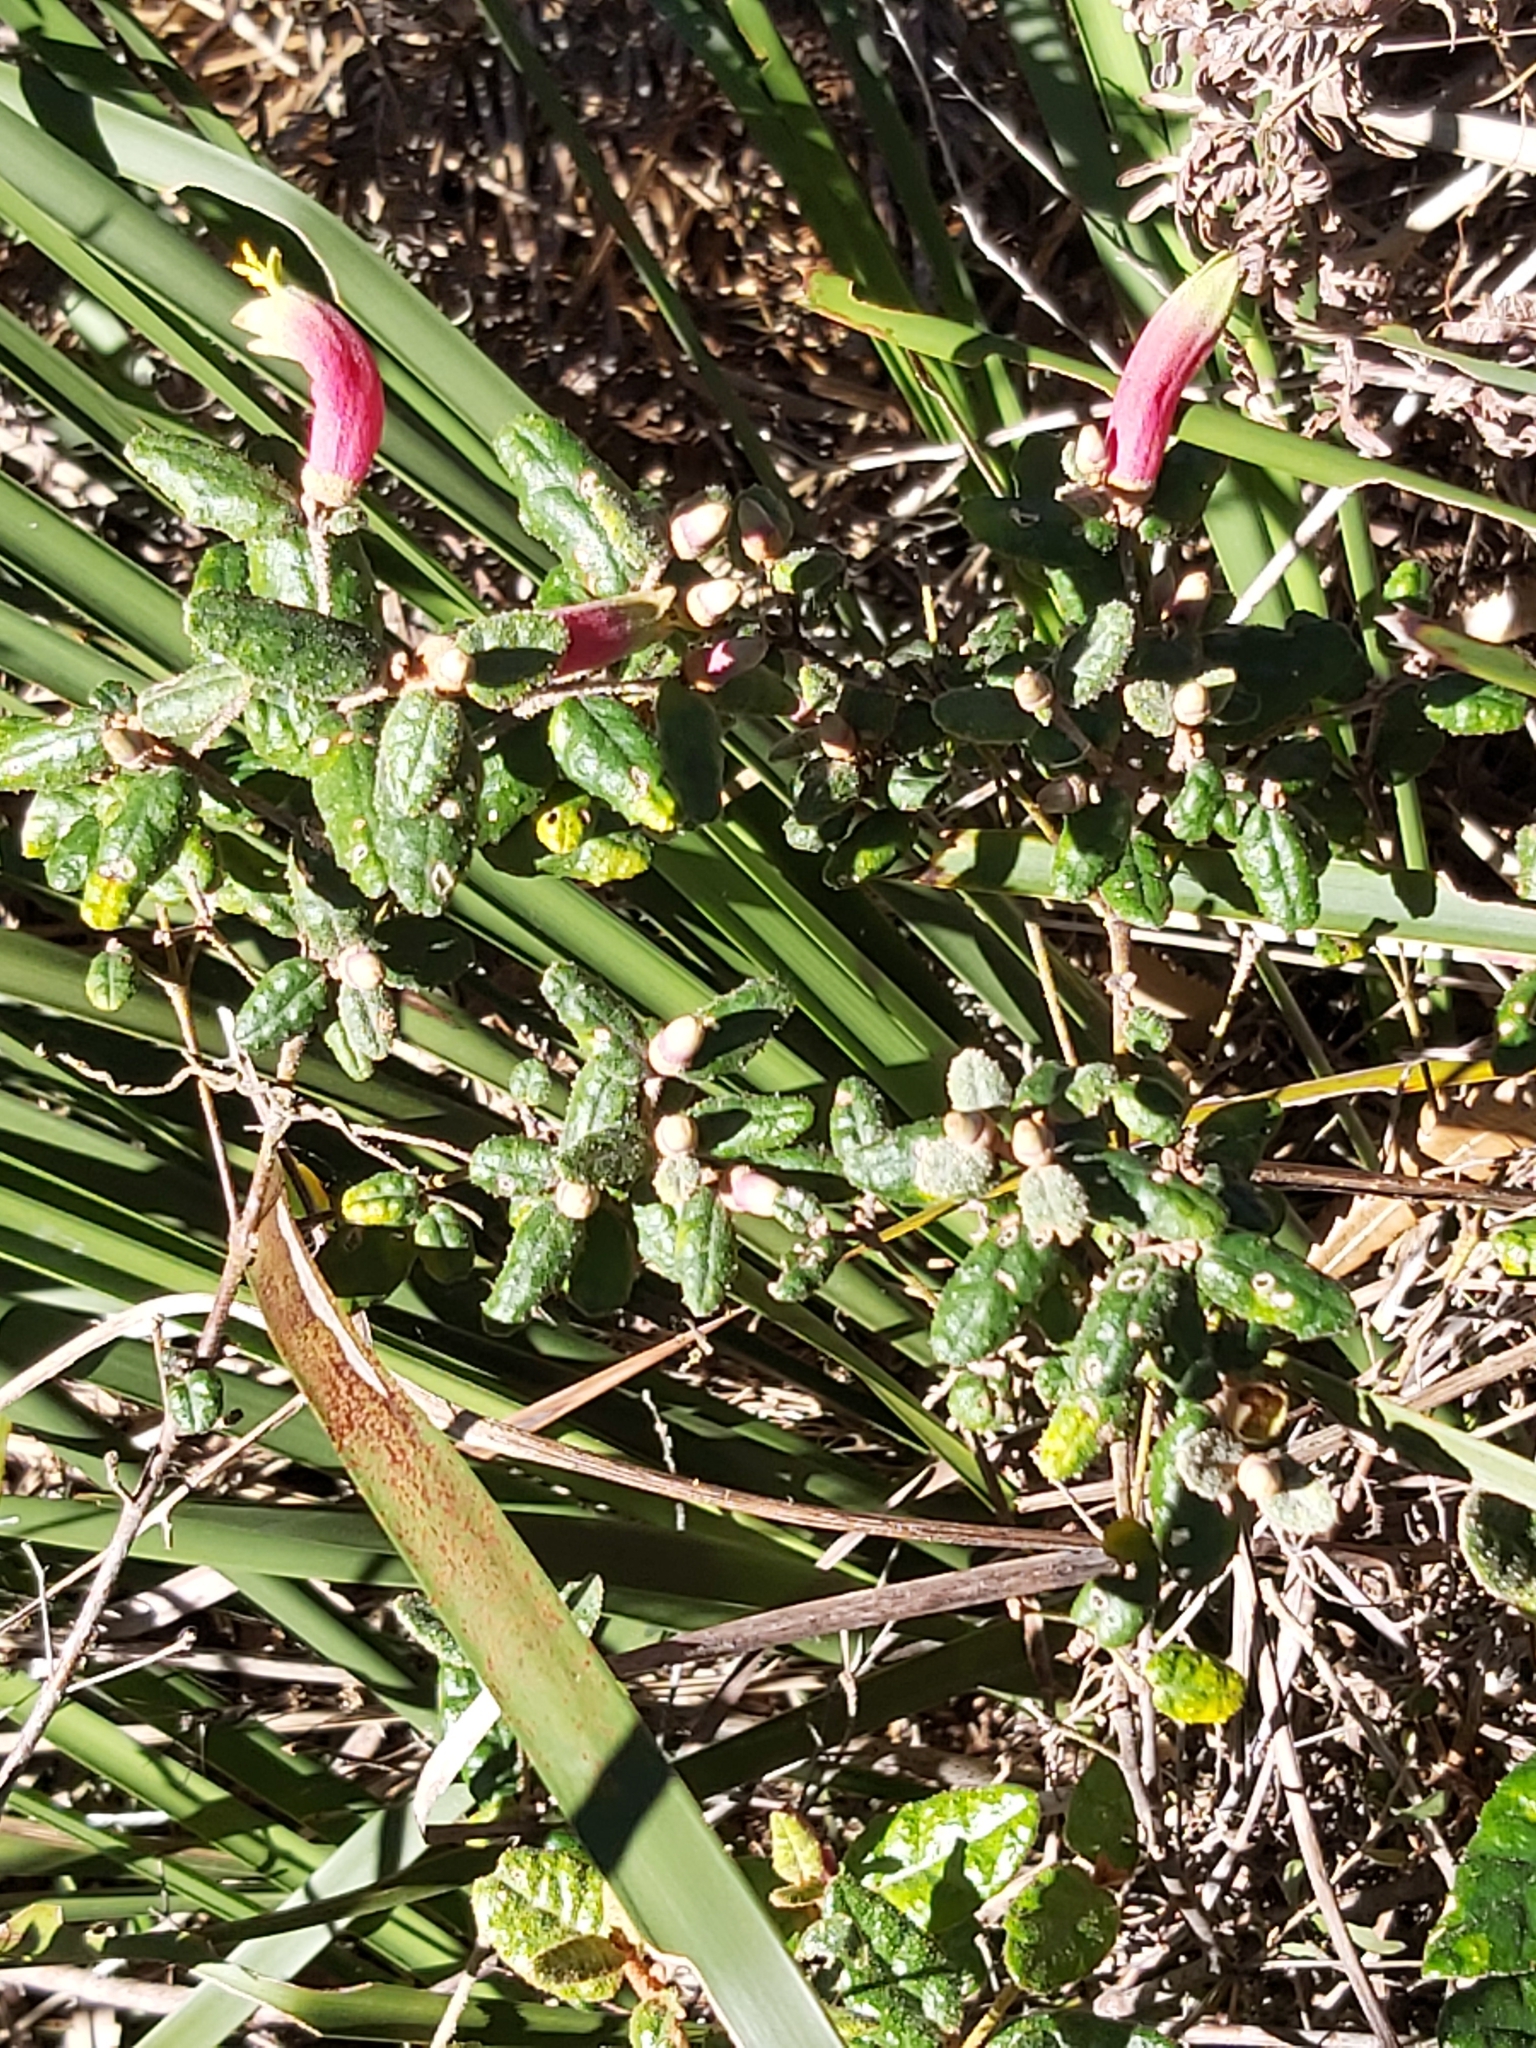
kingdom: Plantae
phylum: Tracheophyta
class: Magnoliopsida
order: Sapindales
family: Rutaceae
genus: Correa
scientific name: Correa reflexa
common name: Common correa
